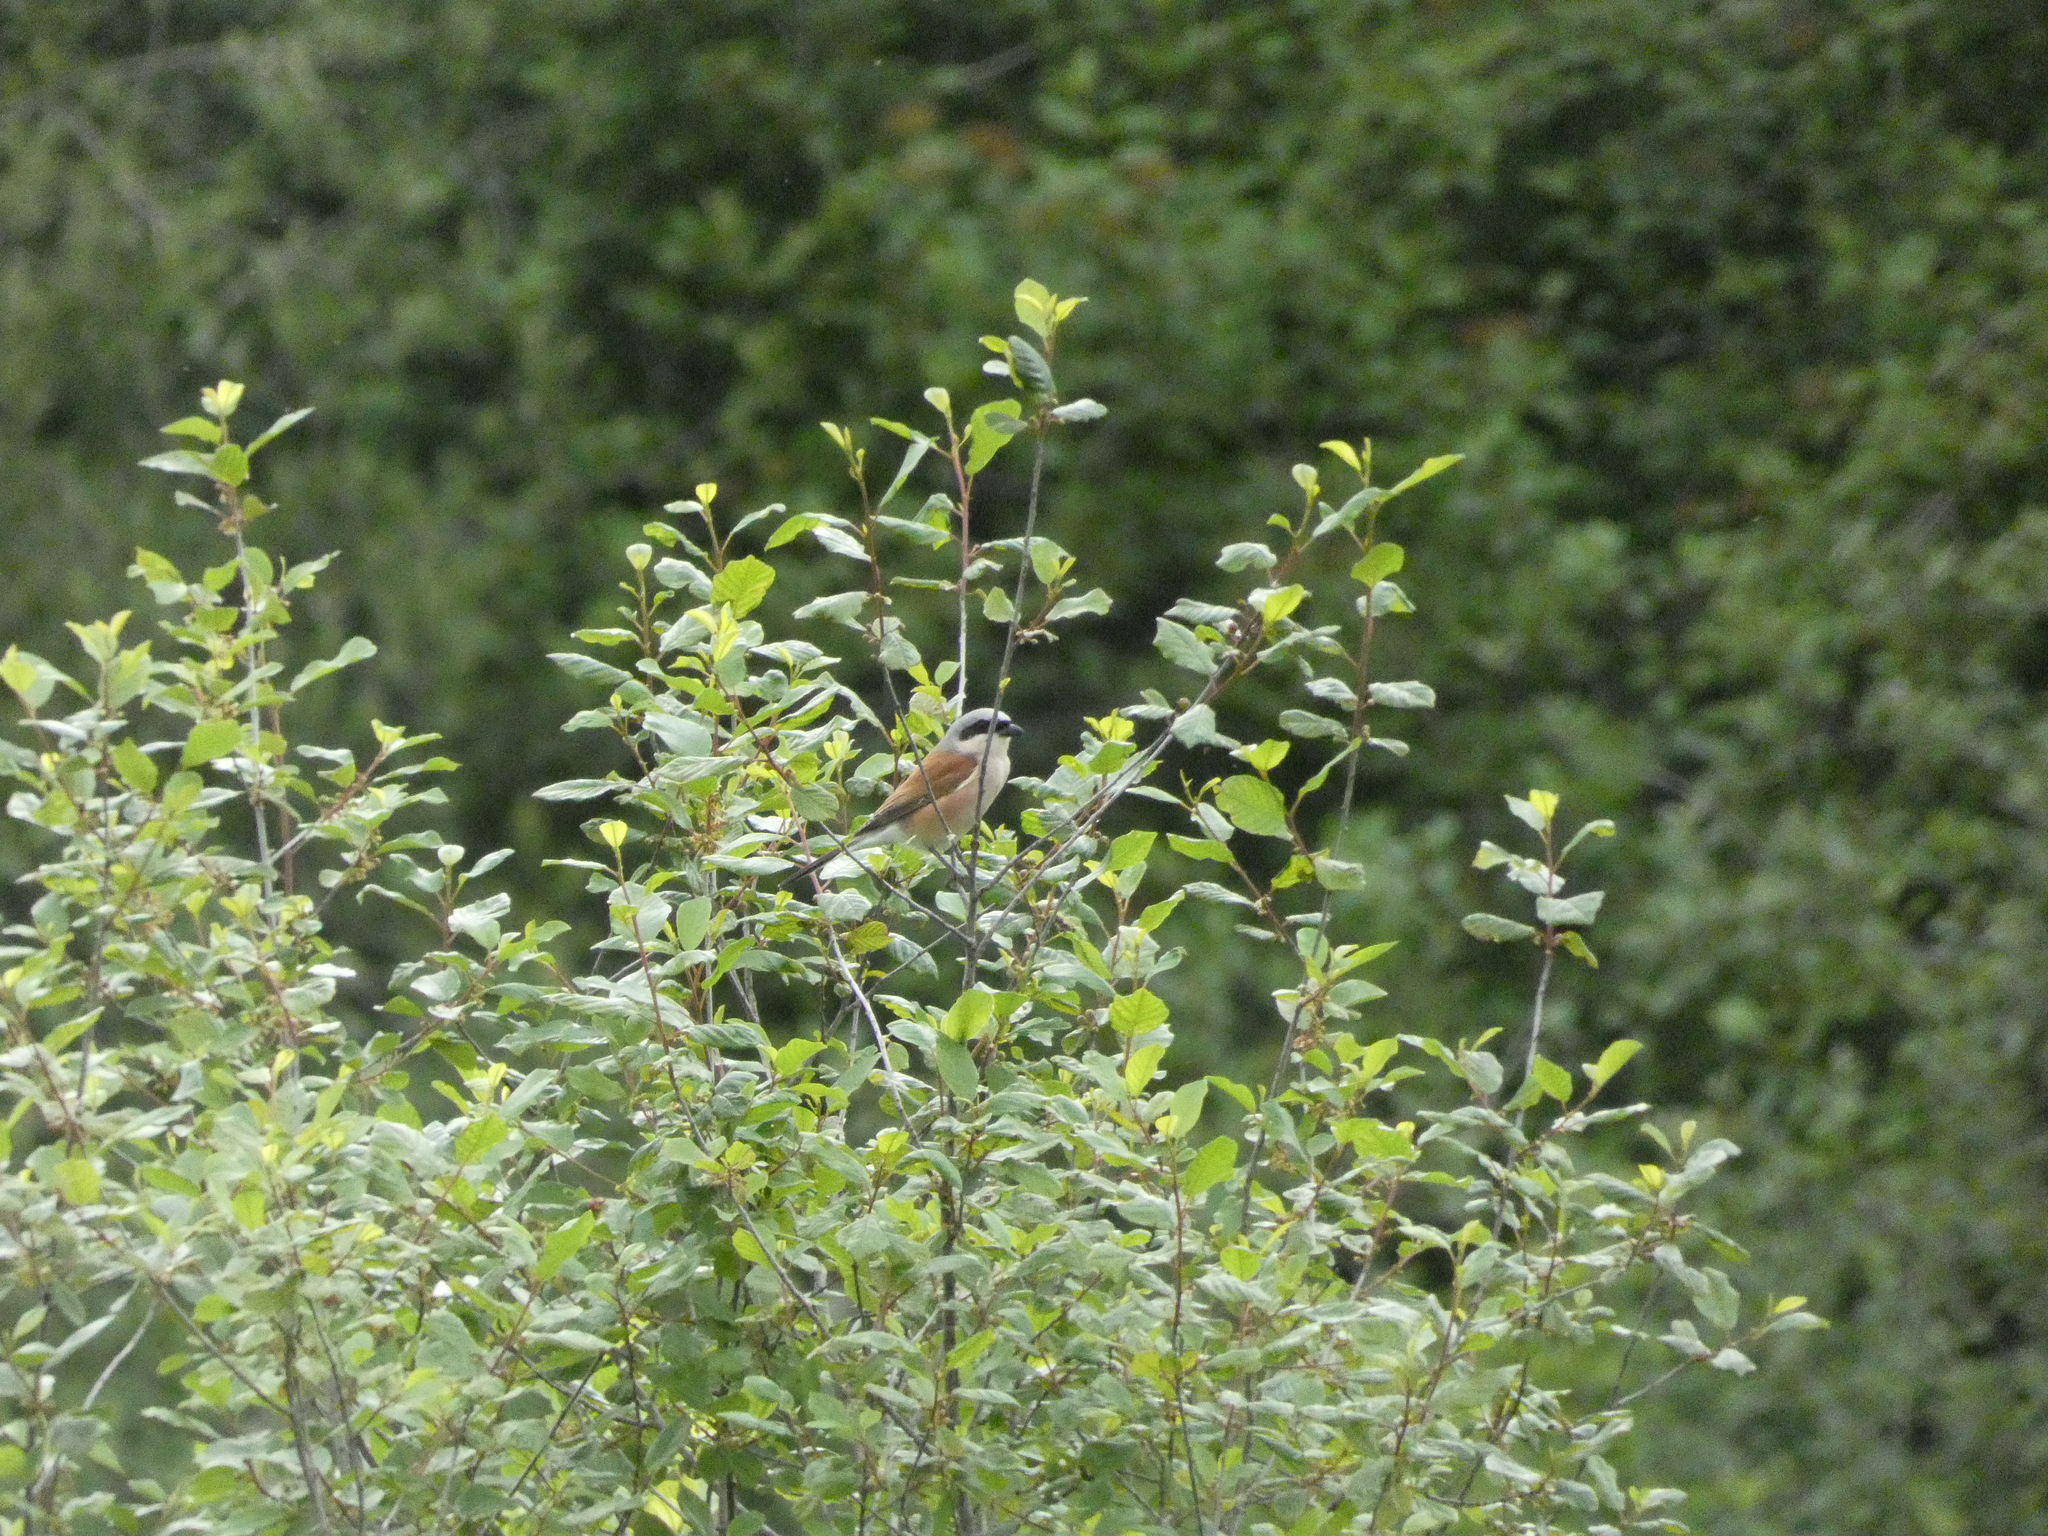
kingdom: Animalia
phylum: Chordata
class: Aves
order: Passeriformes
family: Laniidae
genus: Lanius
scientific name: Lanius collurio
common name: Red-backed shrike
